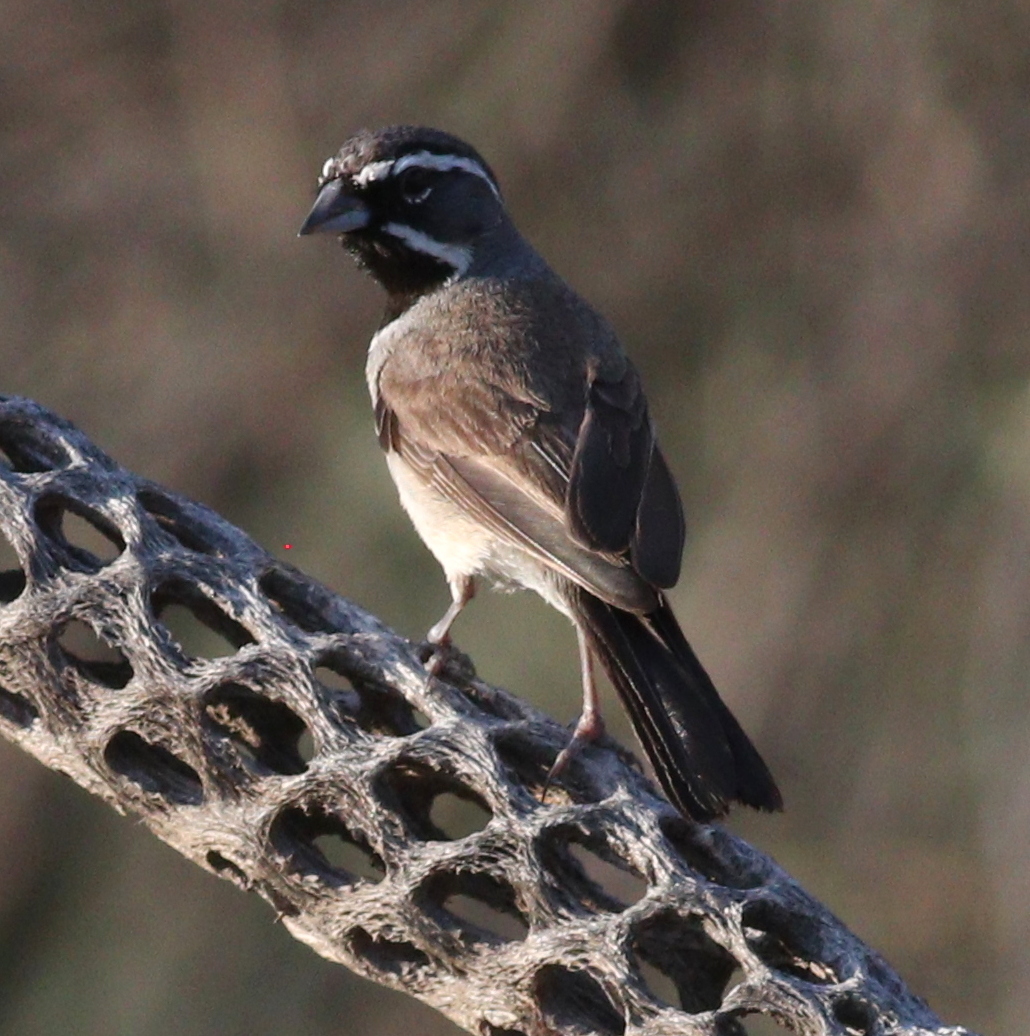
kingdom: Animalia
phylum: Chordata
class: Aves
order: Passeriformes
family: Passerellidae
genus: Amphispiza
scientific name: Amphispiza bilineata
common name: Black-throated sparrow
